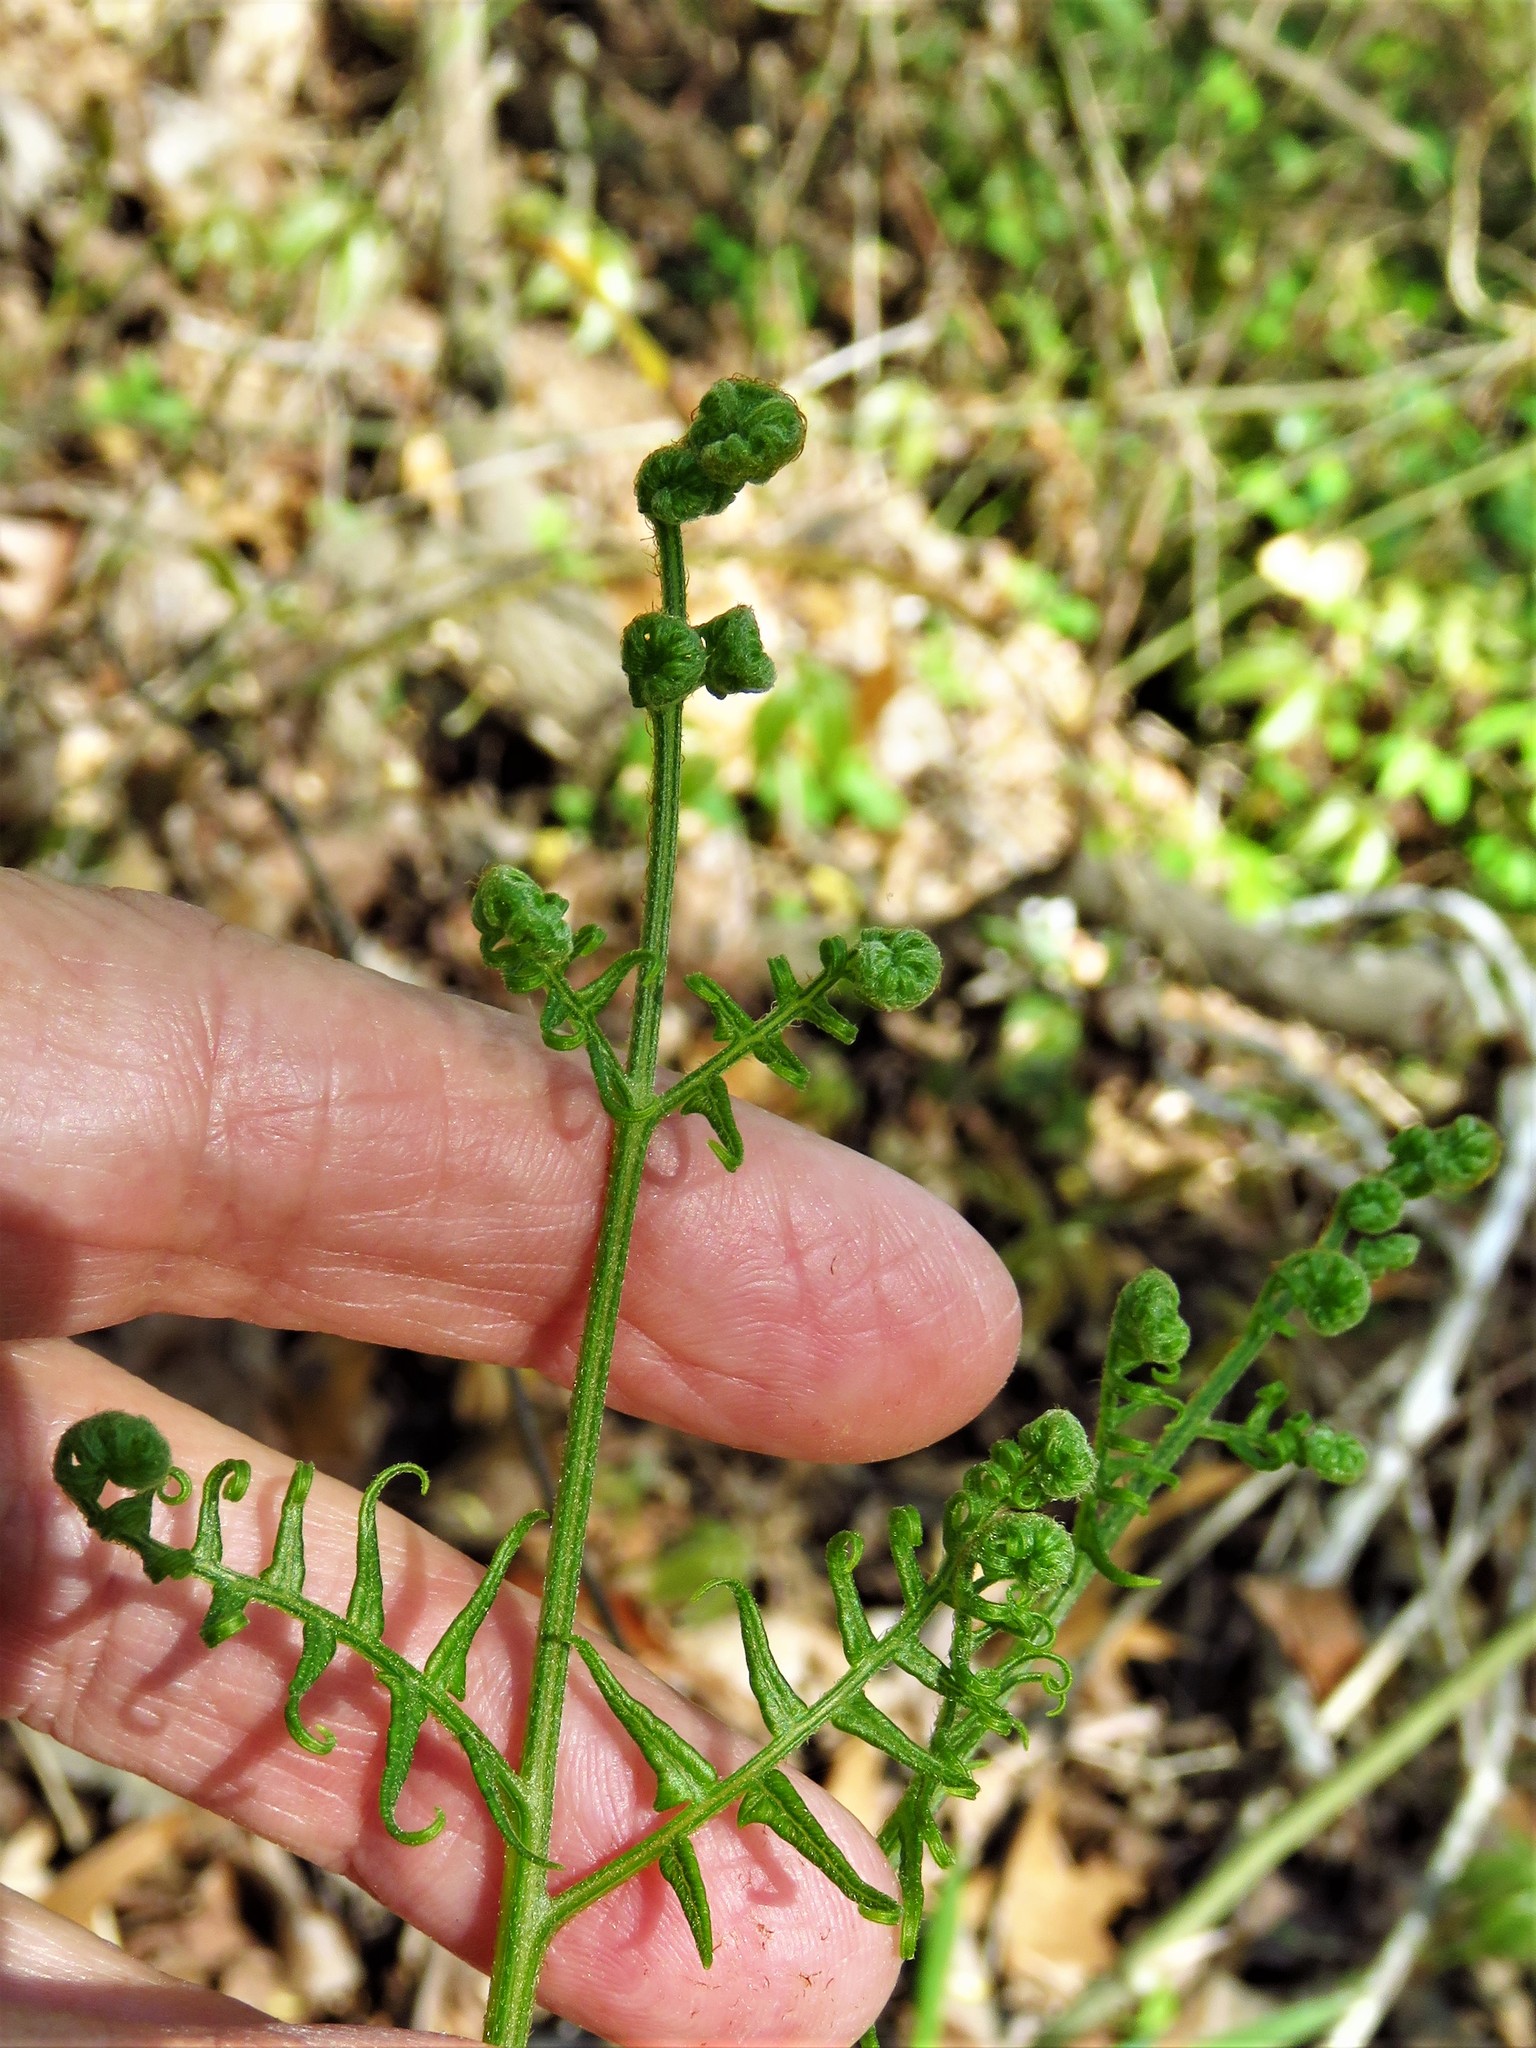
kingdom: Plantae
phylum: Tracheophyta
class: Polypodiopsida
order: Polypodiales
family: Dennstaedtiaceae
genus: Pteridium
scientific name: Pteridium
